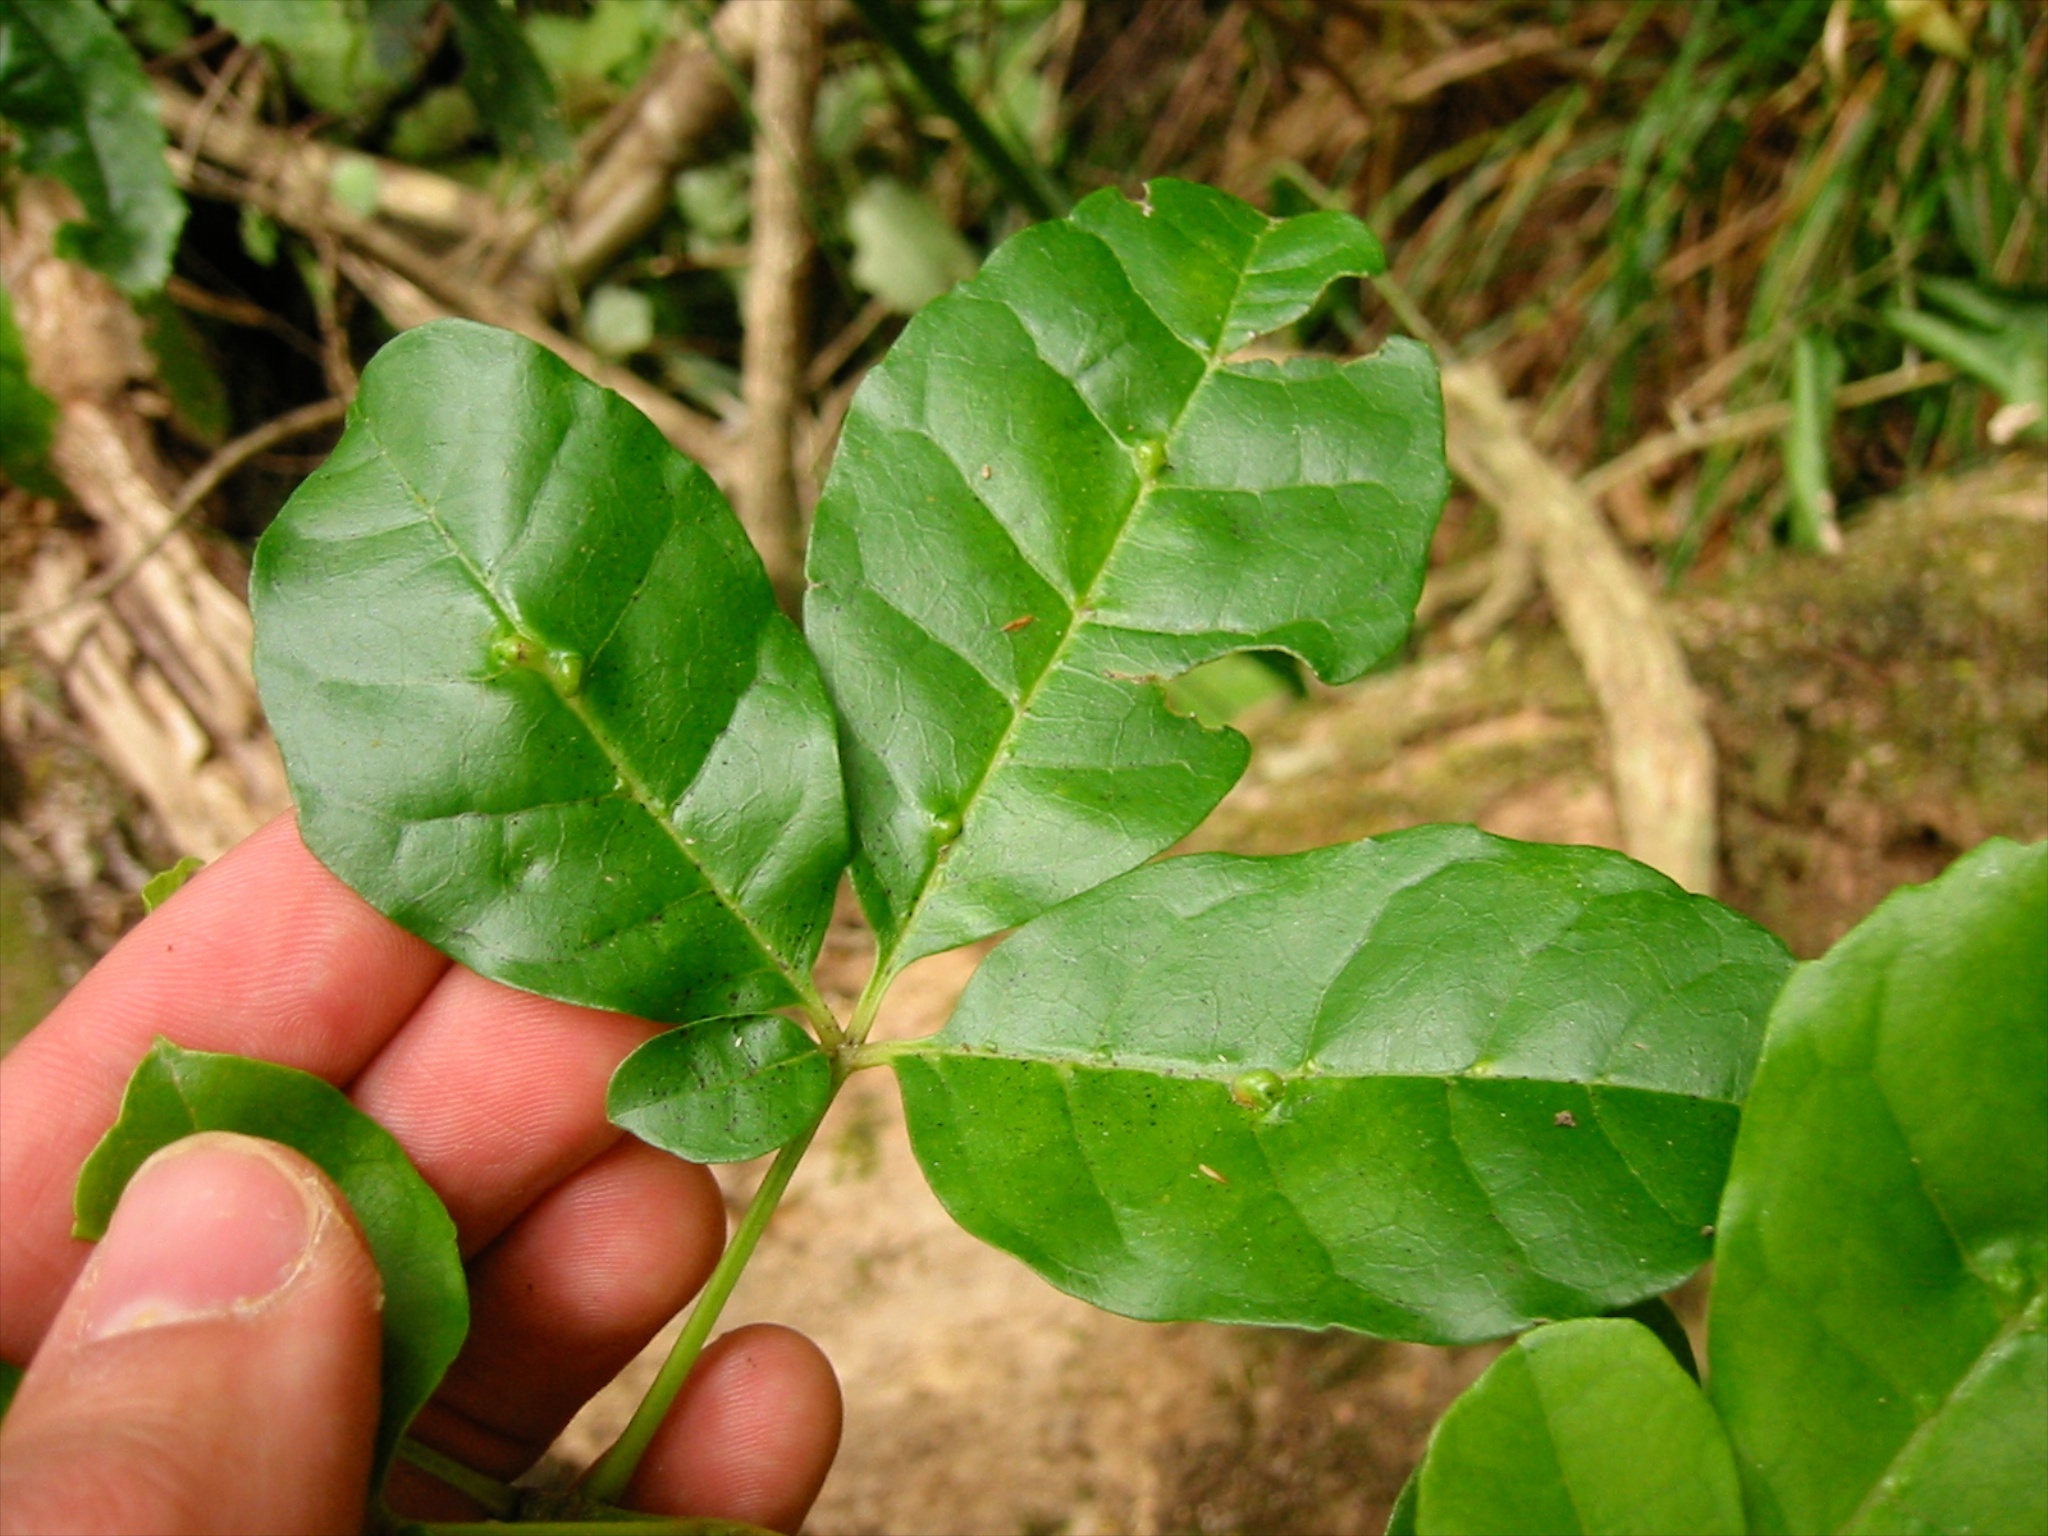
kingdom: Animalia
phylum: Arthropoda
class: Arachnida
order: Trombidiformes
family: Eriophyidae
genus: Asetilobus
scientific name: Asetilobus
